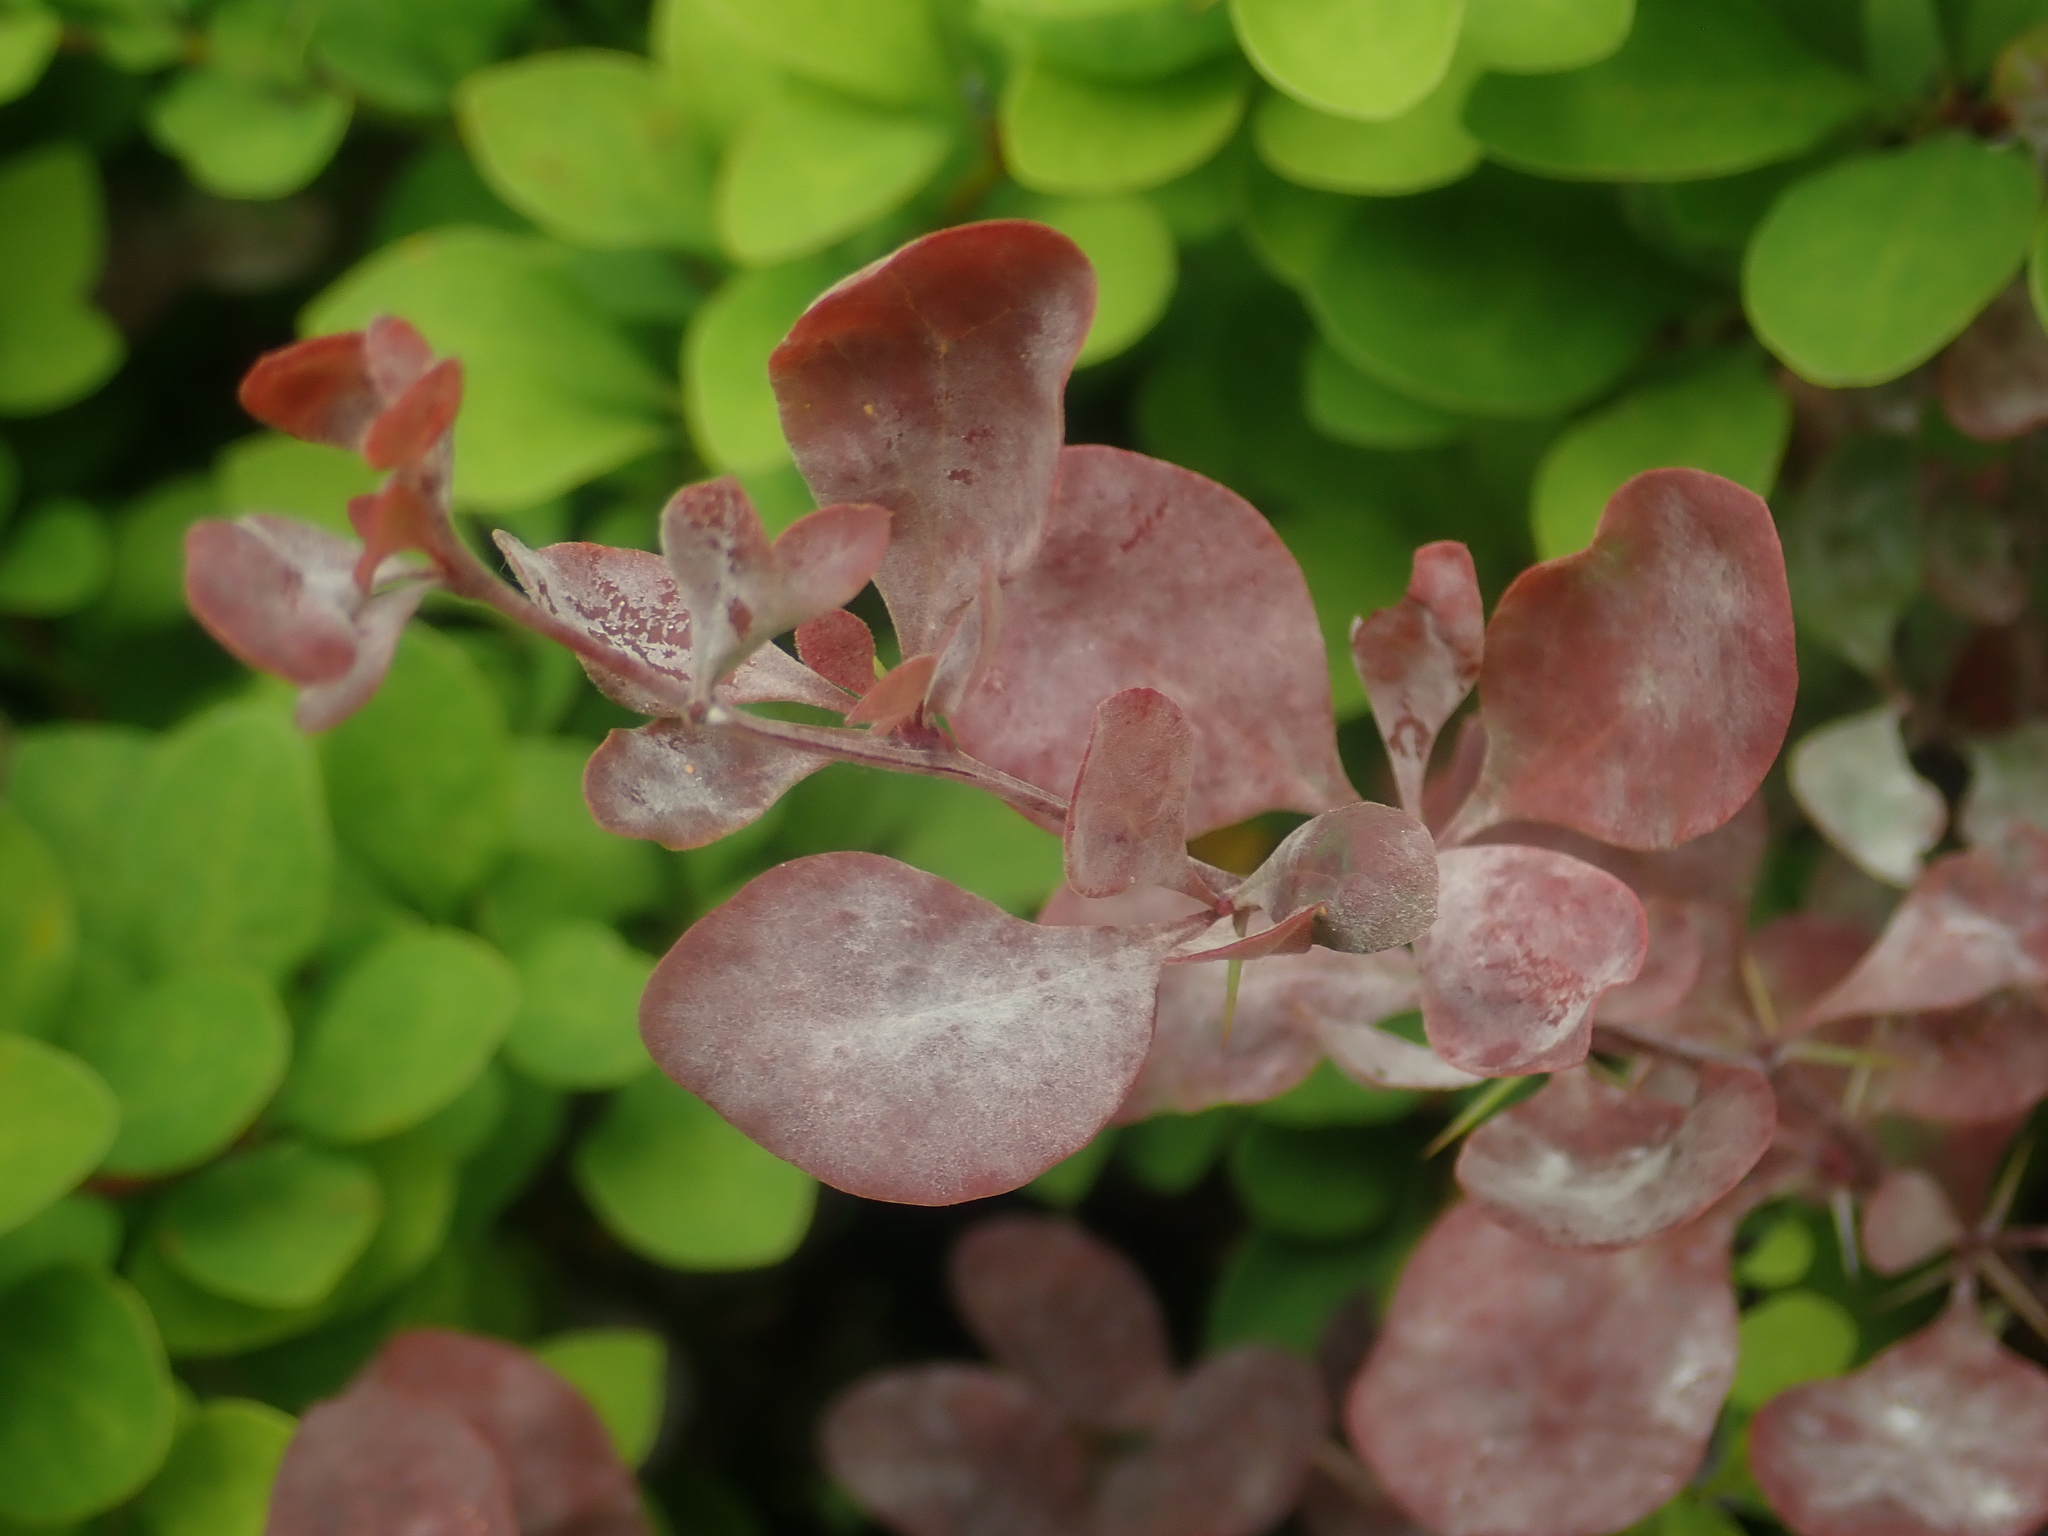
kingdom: Fungi
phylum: Ascomycota
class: Leotiomycetes
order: Helotiales
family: Erysiphaceae
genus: Erysiphe
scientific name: Erysiphe berberidis
